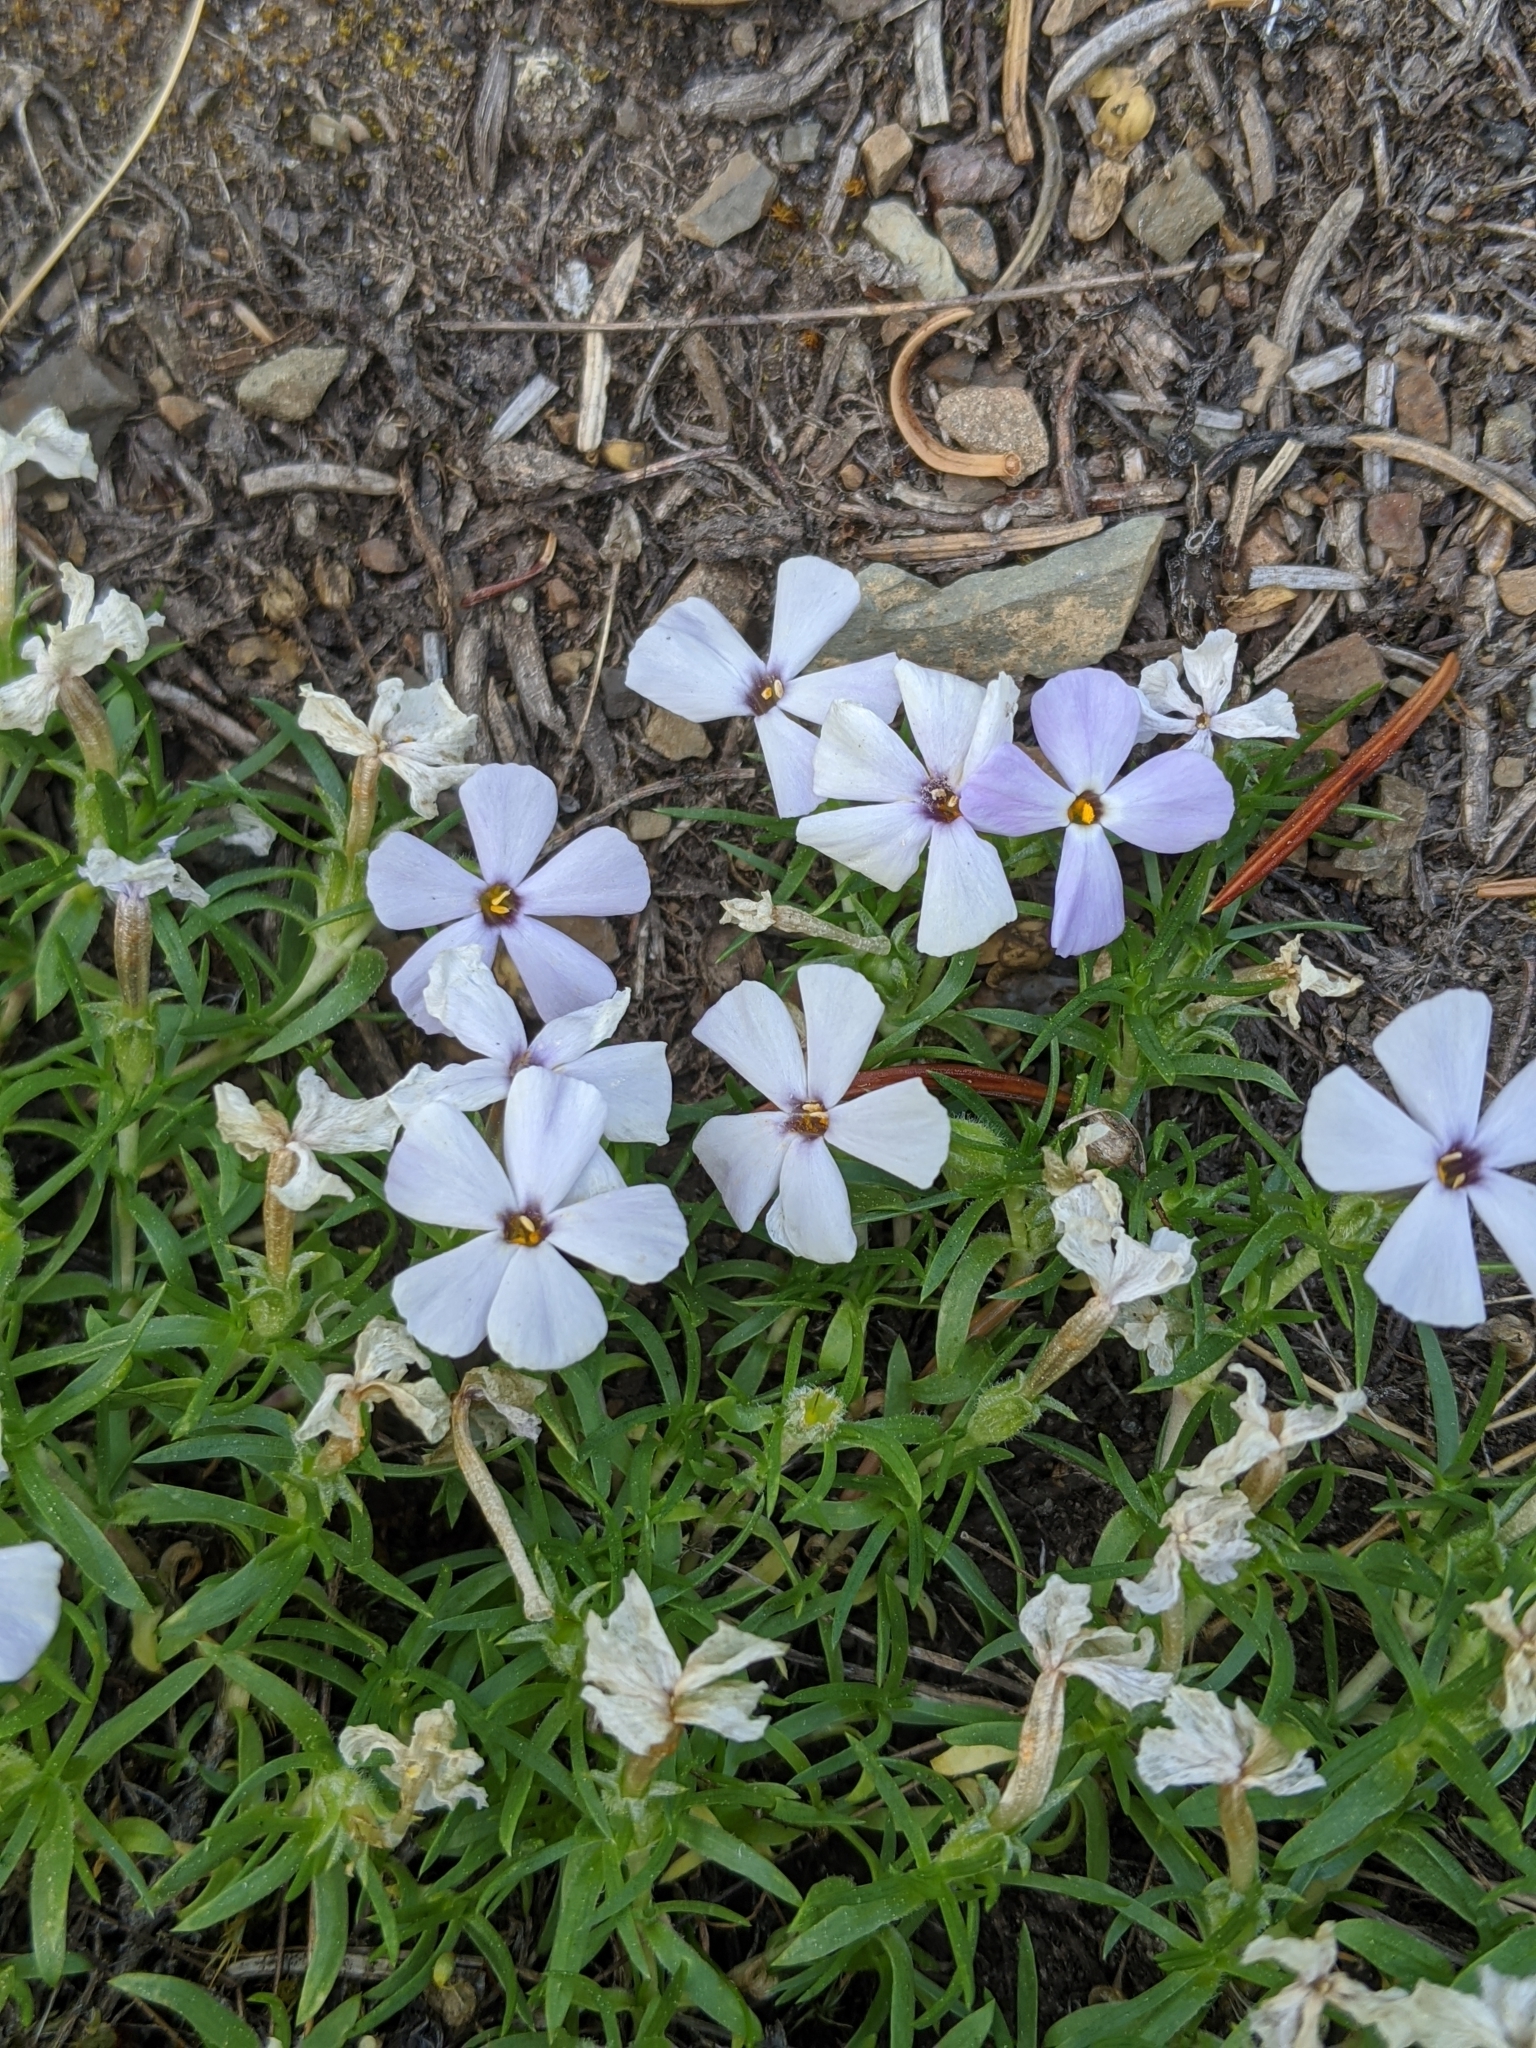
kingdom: Plantae
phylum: Tracheophyta
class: Magnoliopsida
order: Ericales
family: Polemoniaceae
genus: Phlox
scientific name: Phlox diffusa
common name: Mat phlox
